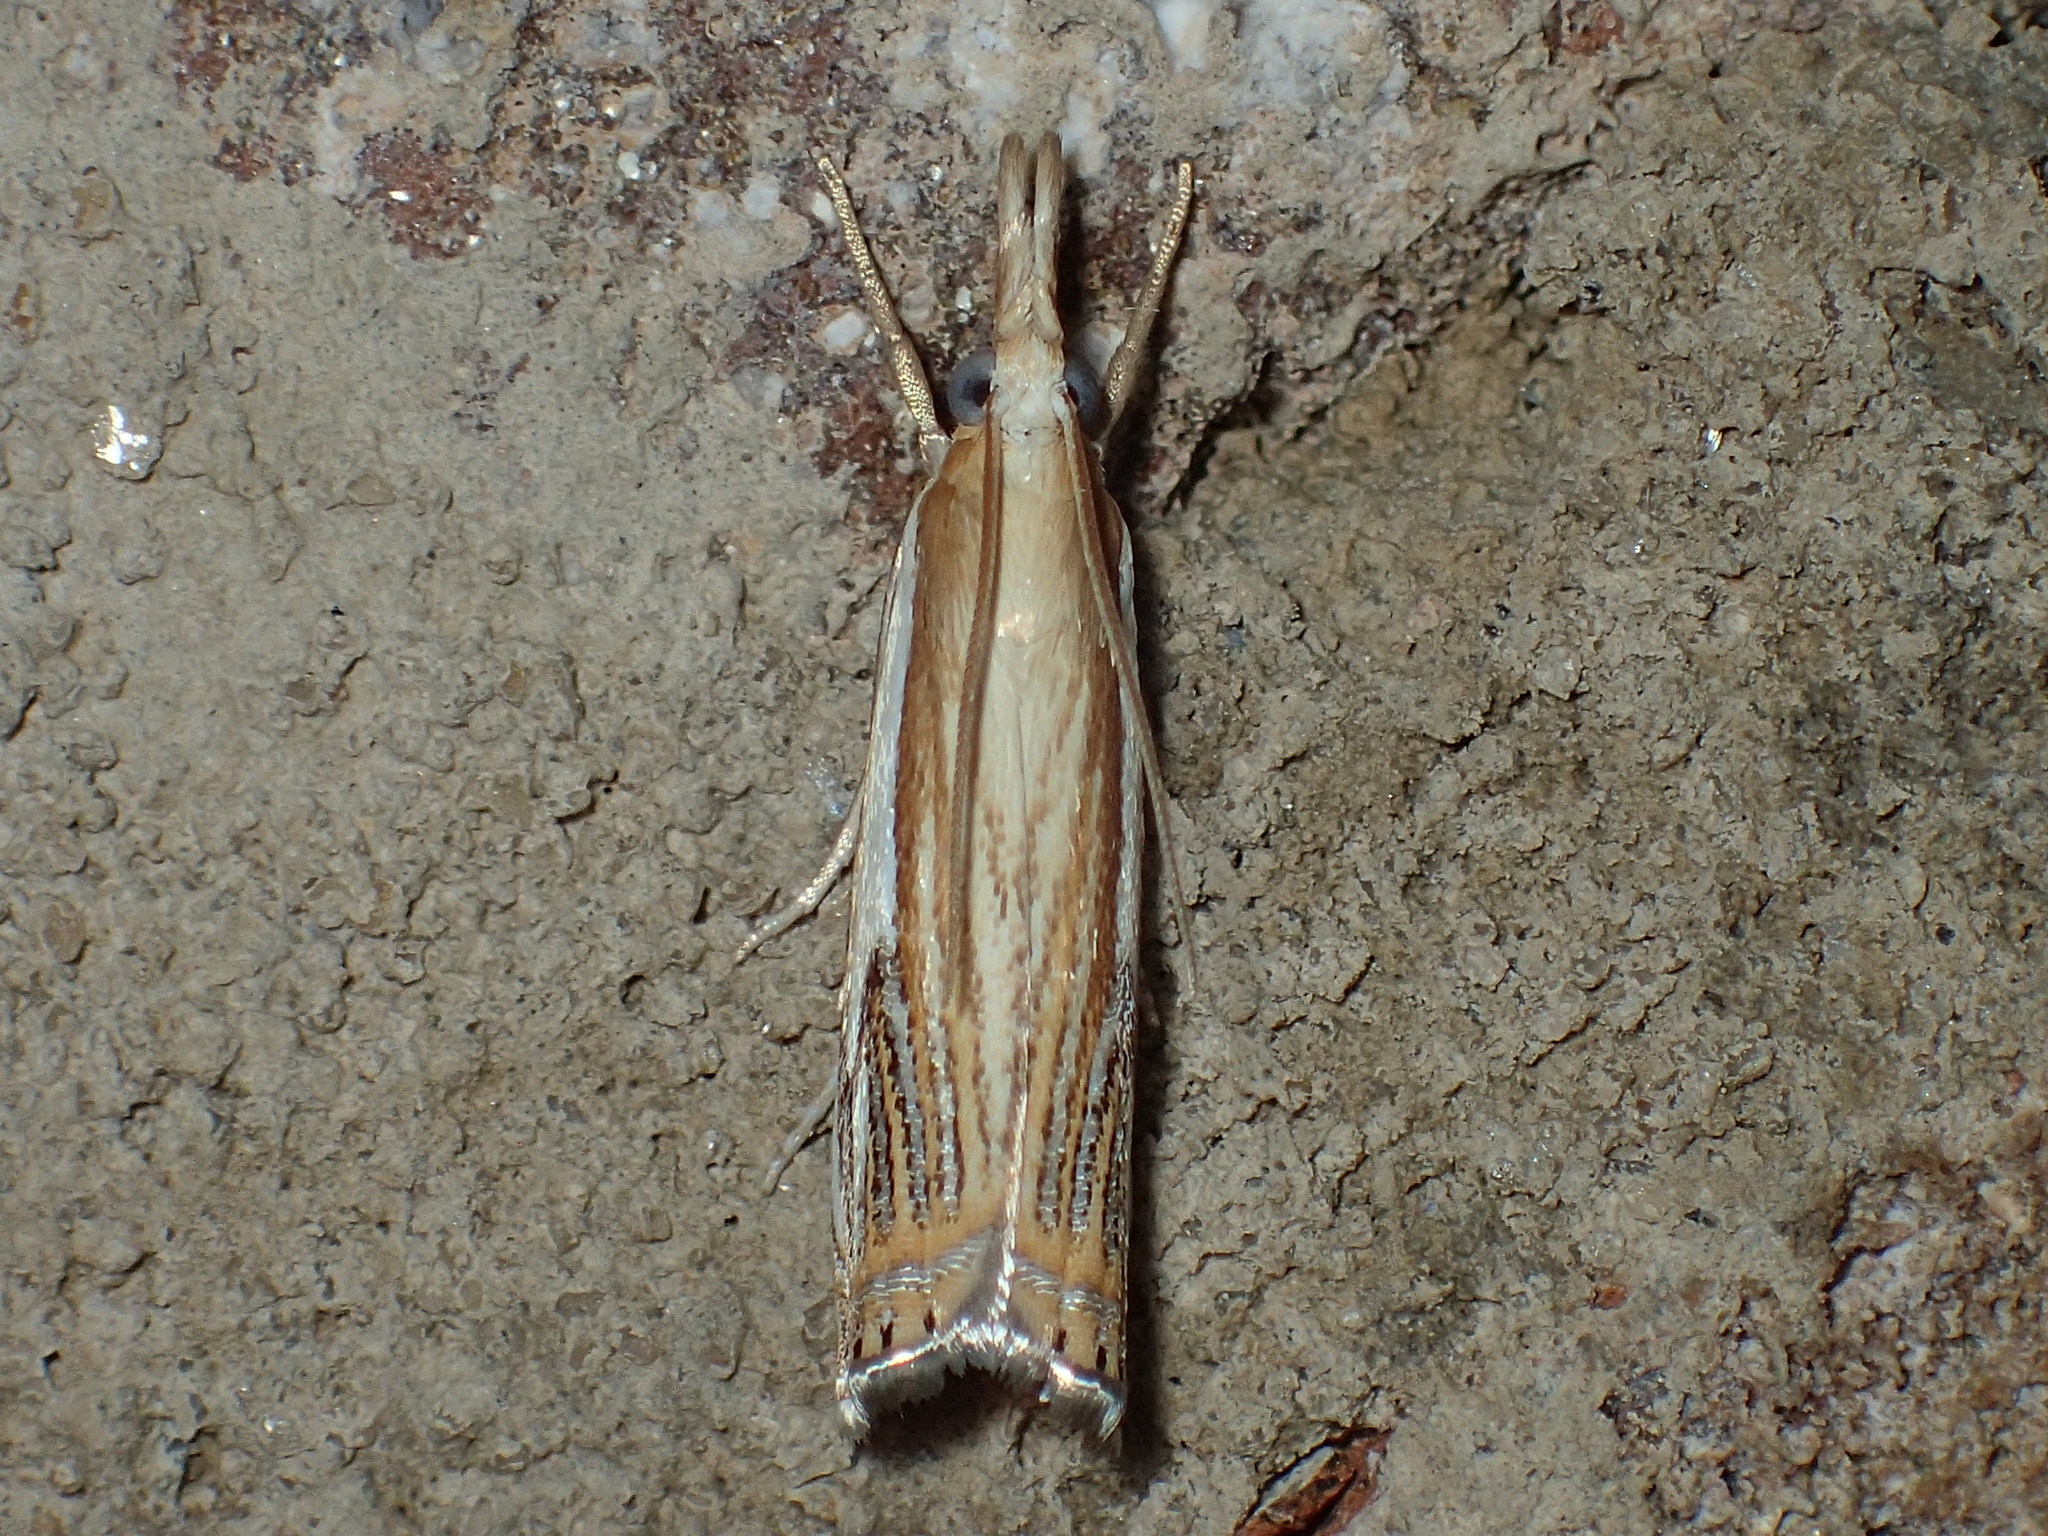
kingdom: Animalia
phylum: Arthropoda
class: Insecta
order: Lepidoptera
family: Crambidae
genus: Crambus
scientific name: Crambus agitatellus
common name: Double-banded grass-veneer
